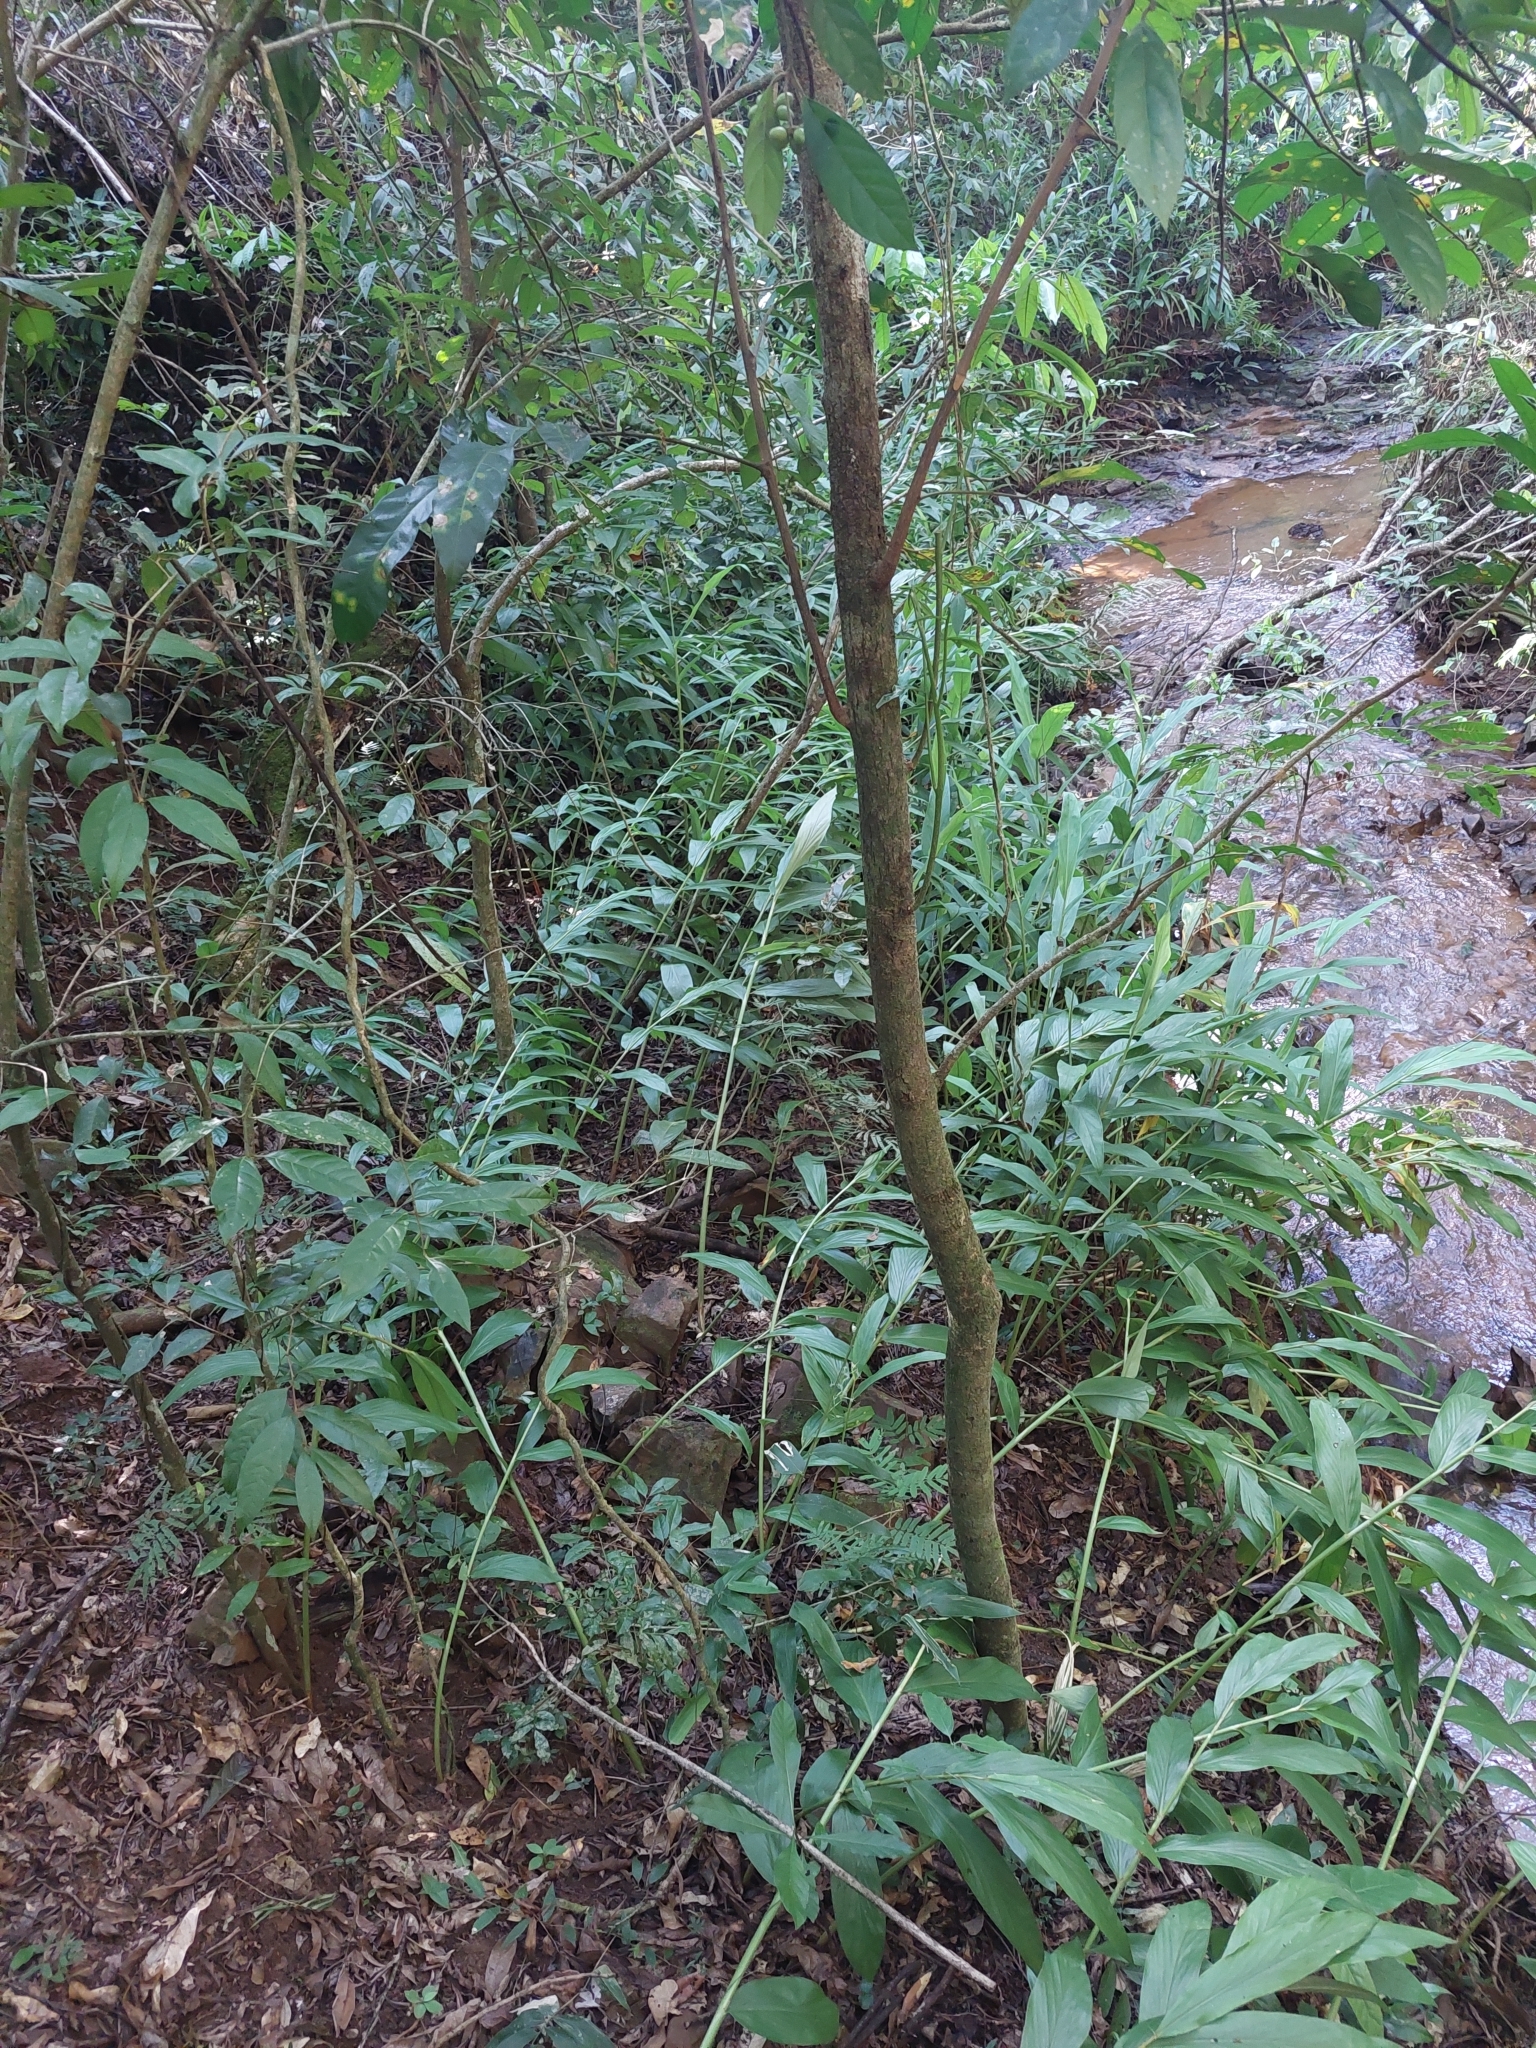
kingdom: Plantae
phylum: Tracheophyta
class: Liliopsida
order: Zingiberales
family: Zingiberaceae
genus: Hedychium
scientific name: Hedychium coronarium
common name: White garland-lily
